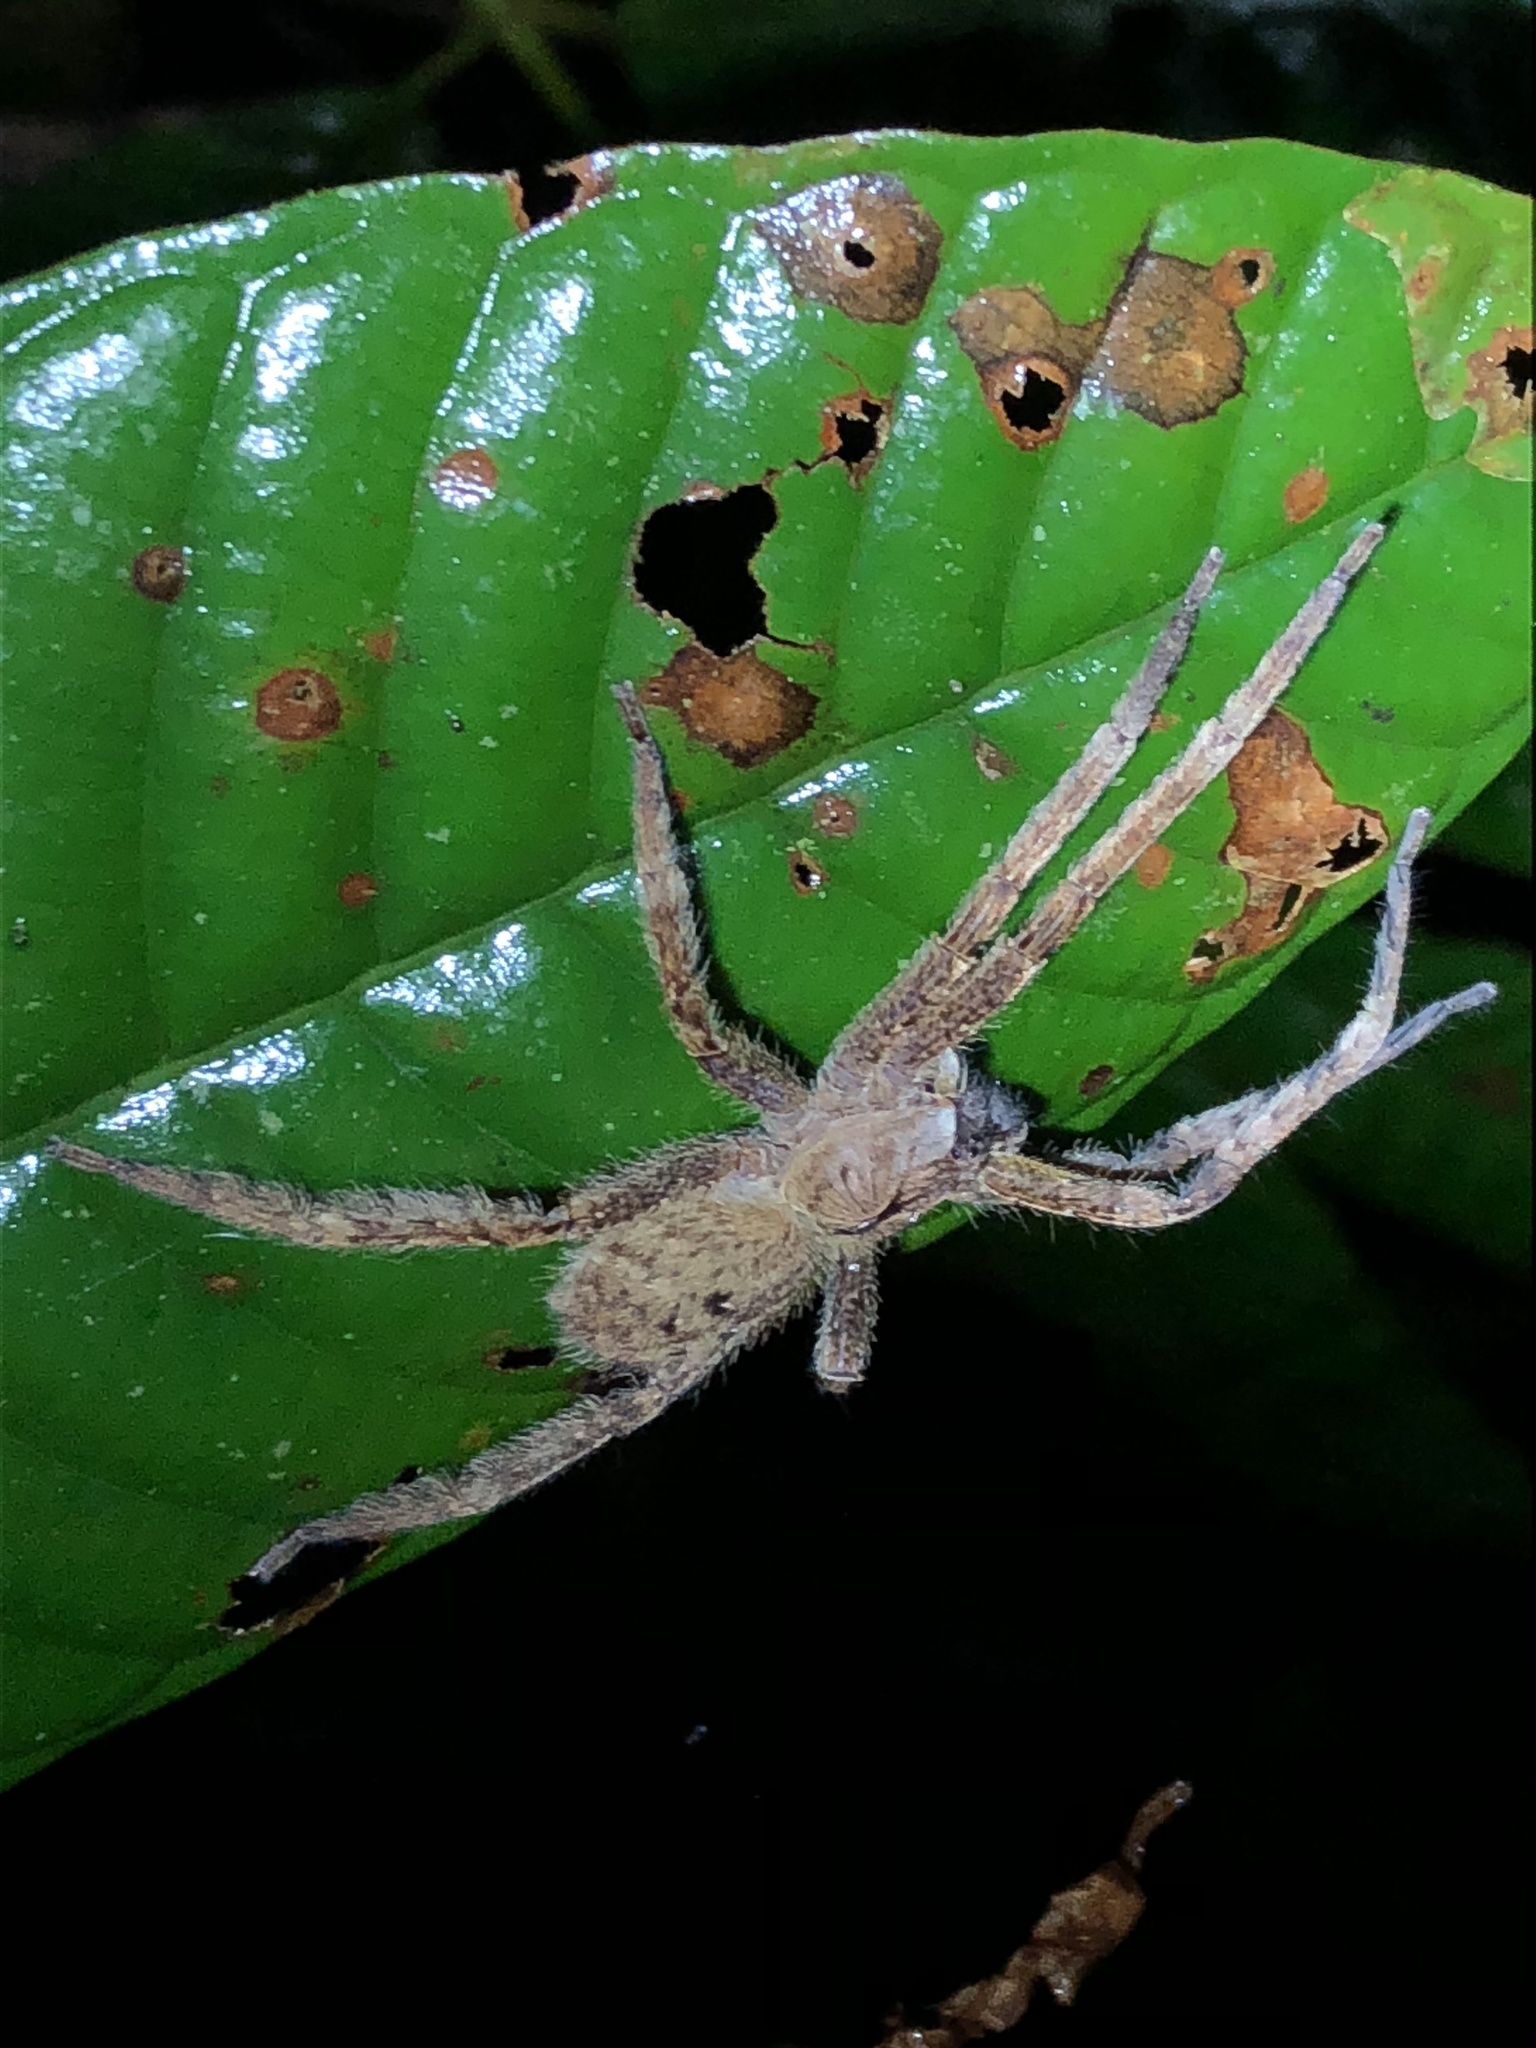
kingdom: Animalia
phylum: Arthropoda
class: Arachnida
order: Araneae
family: Ctenidae
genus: Phoneutria
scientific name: Phoneutria boliviensis
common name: Wandering spiders
